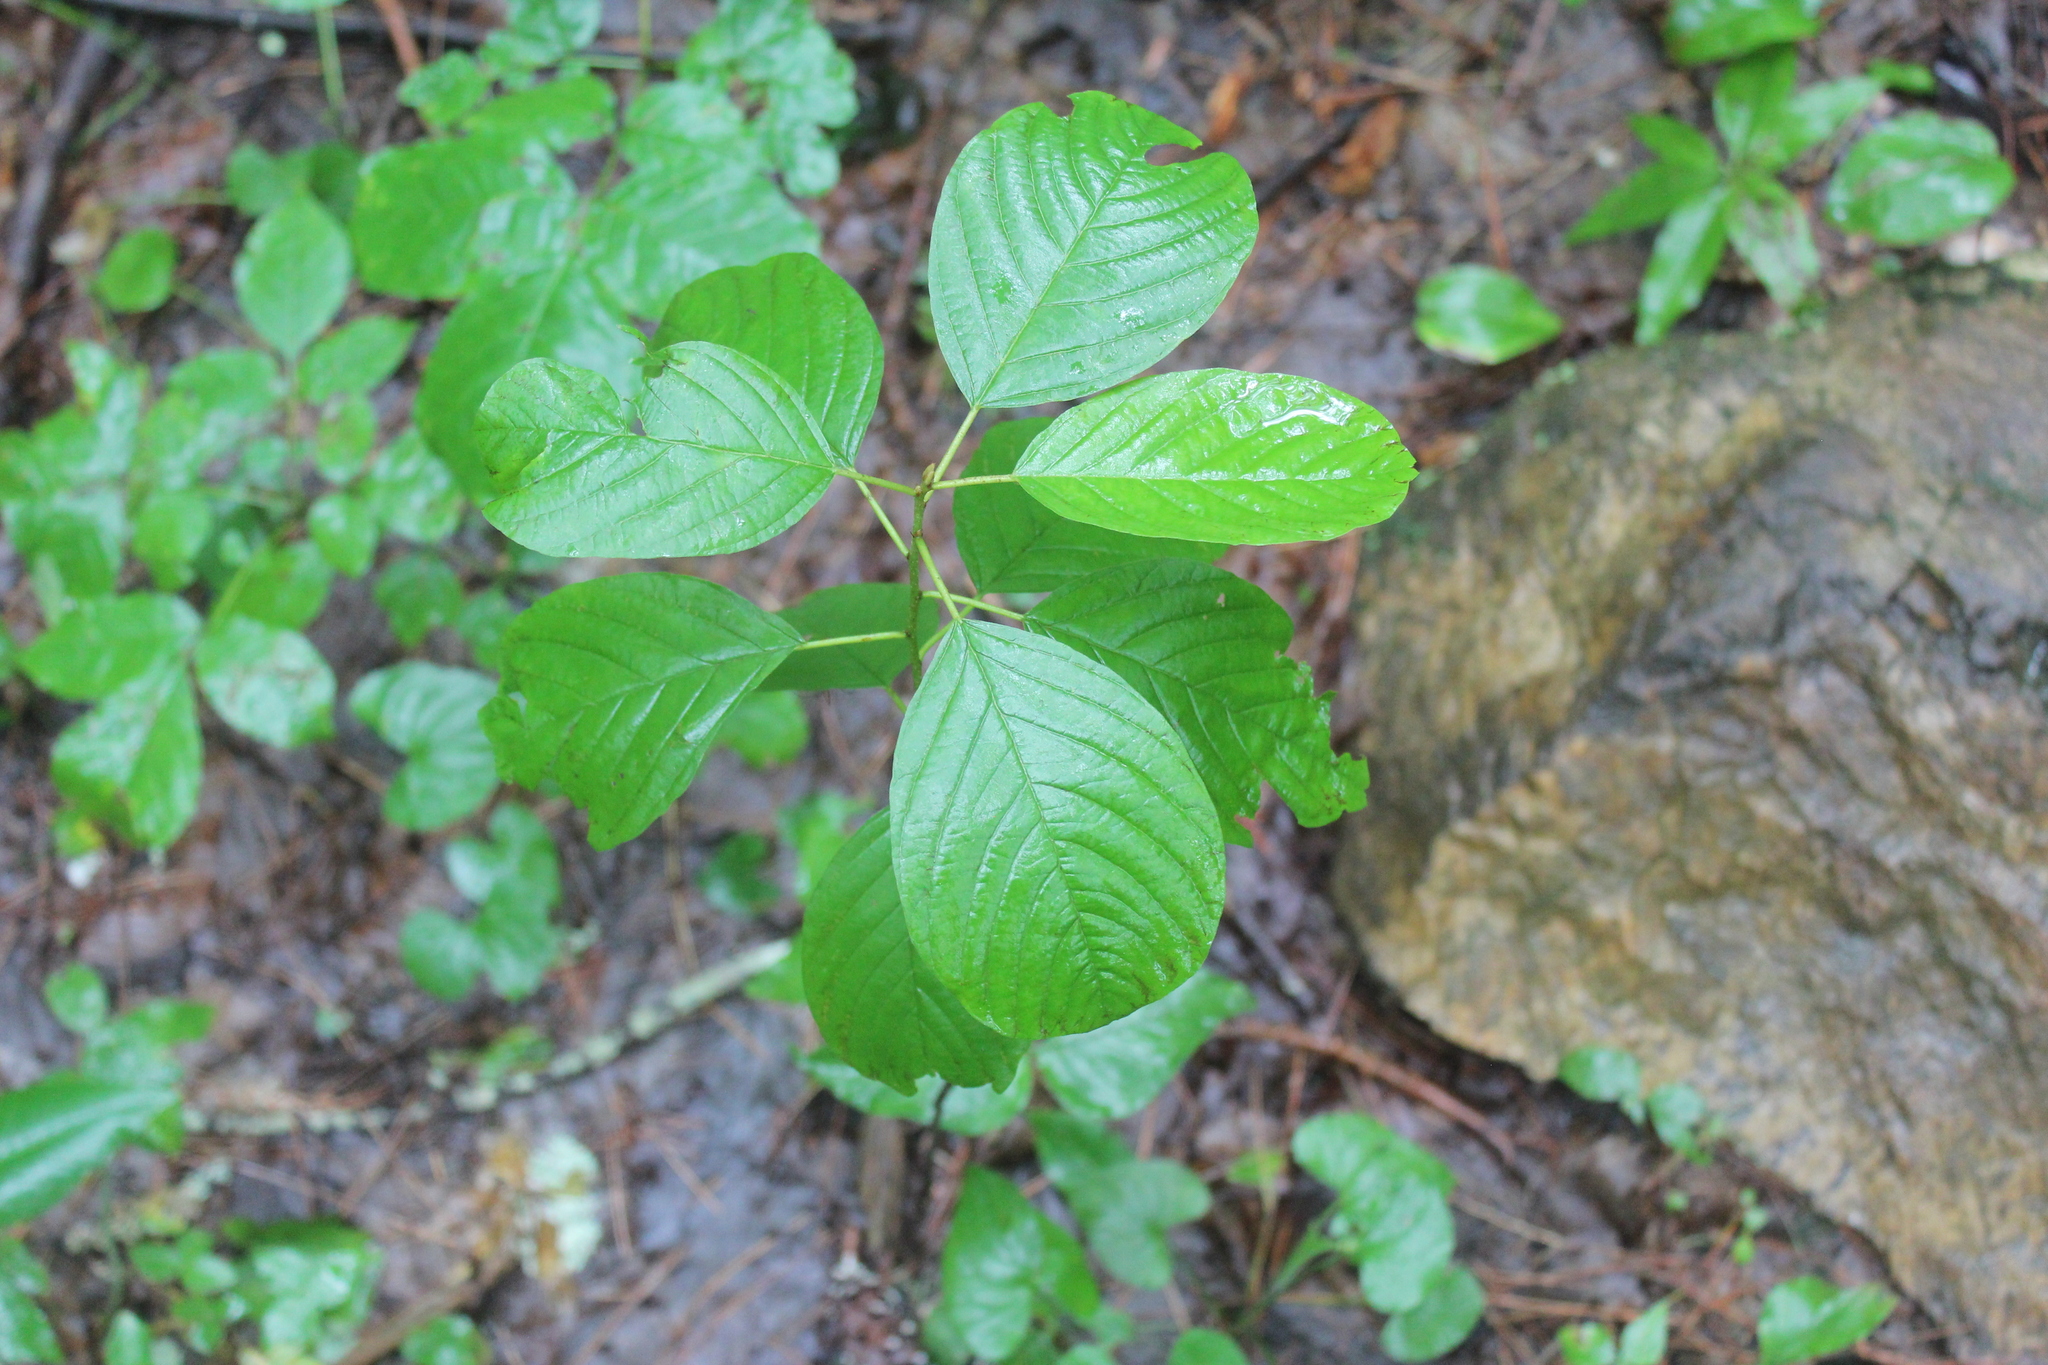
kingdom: Plantae
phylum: Tracheophyta
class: Magnoliopsida
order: Rosales
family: Rhamnaceae
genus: Frangula
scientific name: Frangula alnus
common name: Alder buckthorn
